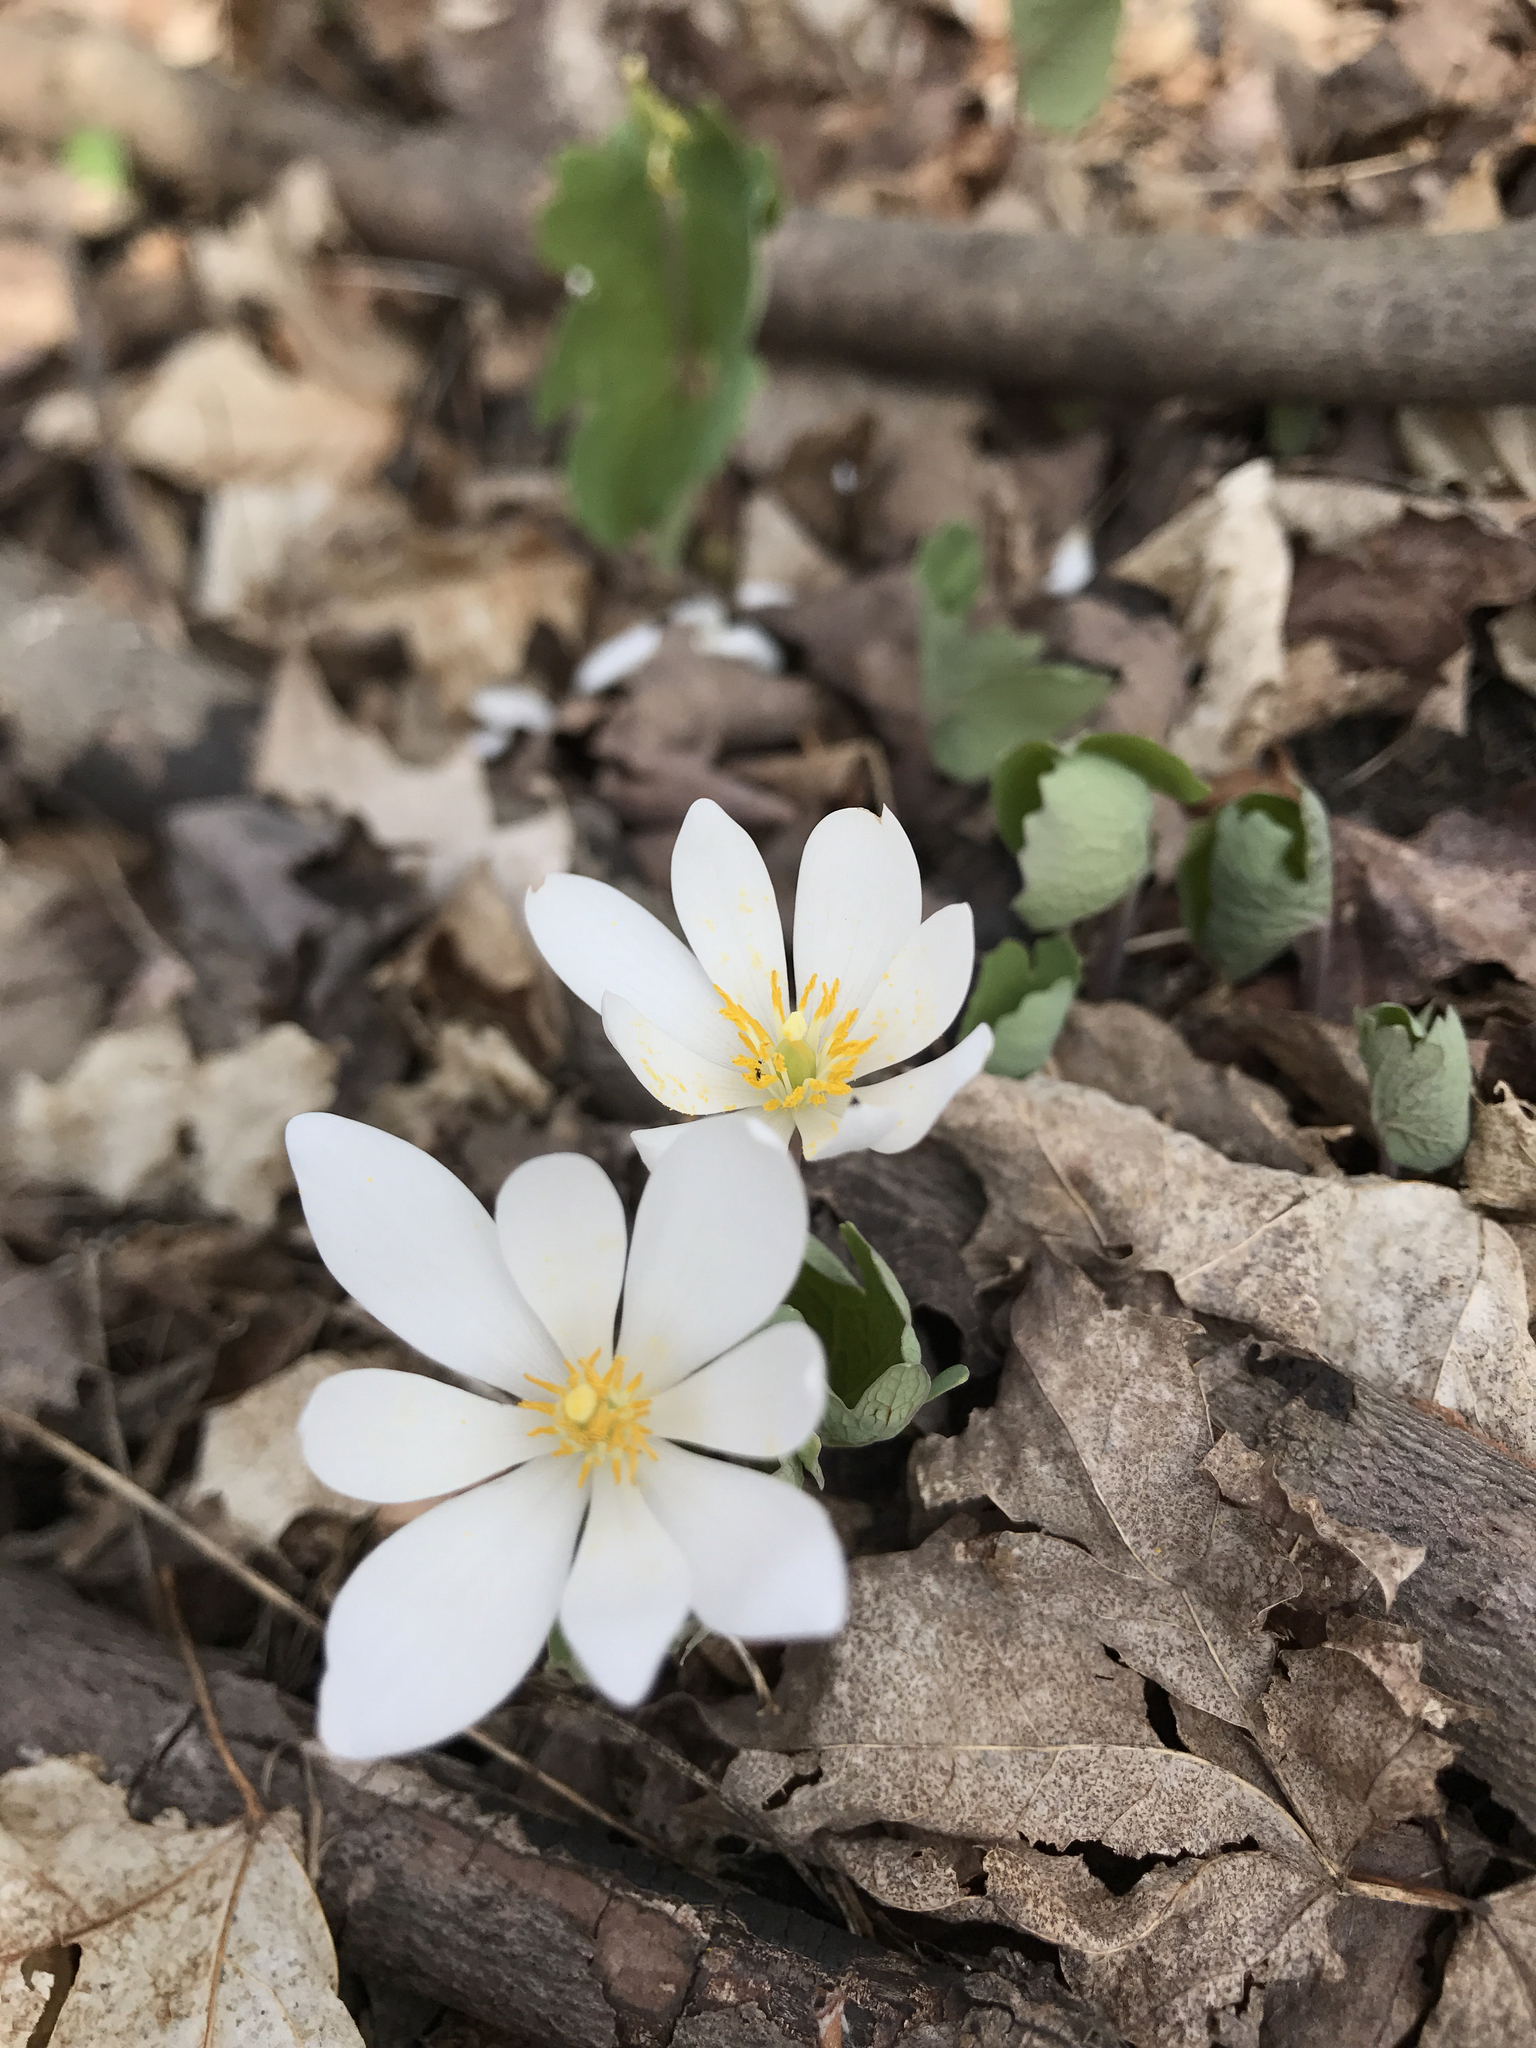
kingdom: Plantae
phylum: Tracheophyta
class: Magnoliopsida
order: Ranunculales
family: Papaveraceae
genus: Sanguinaria
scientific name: Sanguinaria canadensis
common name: Bloodroot
